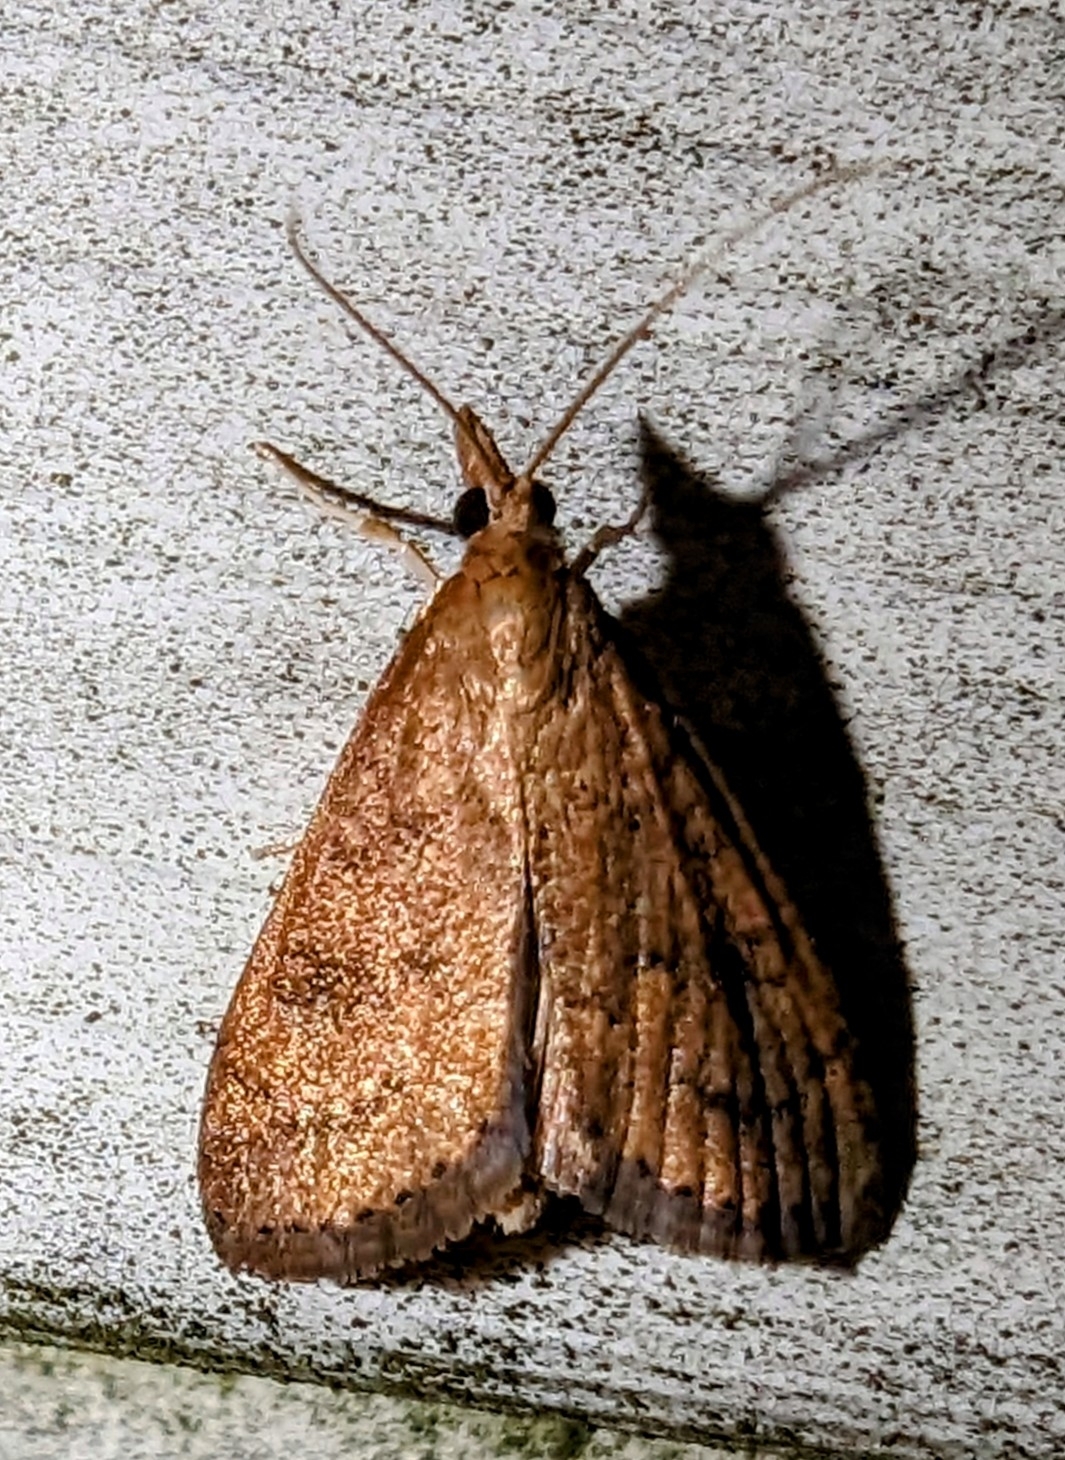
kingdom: Animalia
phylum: Arthropoda
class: Insecta
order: Lepidoptera
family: Crambidae
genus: Udea
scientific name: Udea rubigalis
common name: Celery leaftier moth
